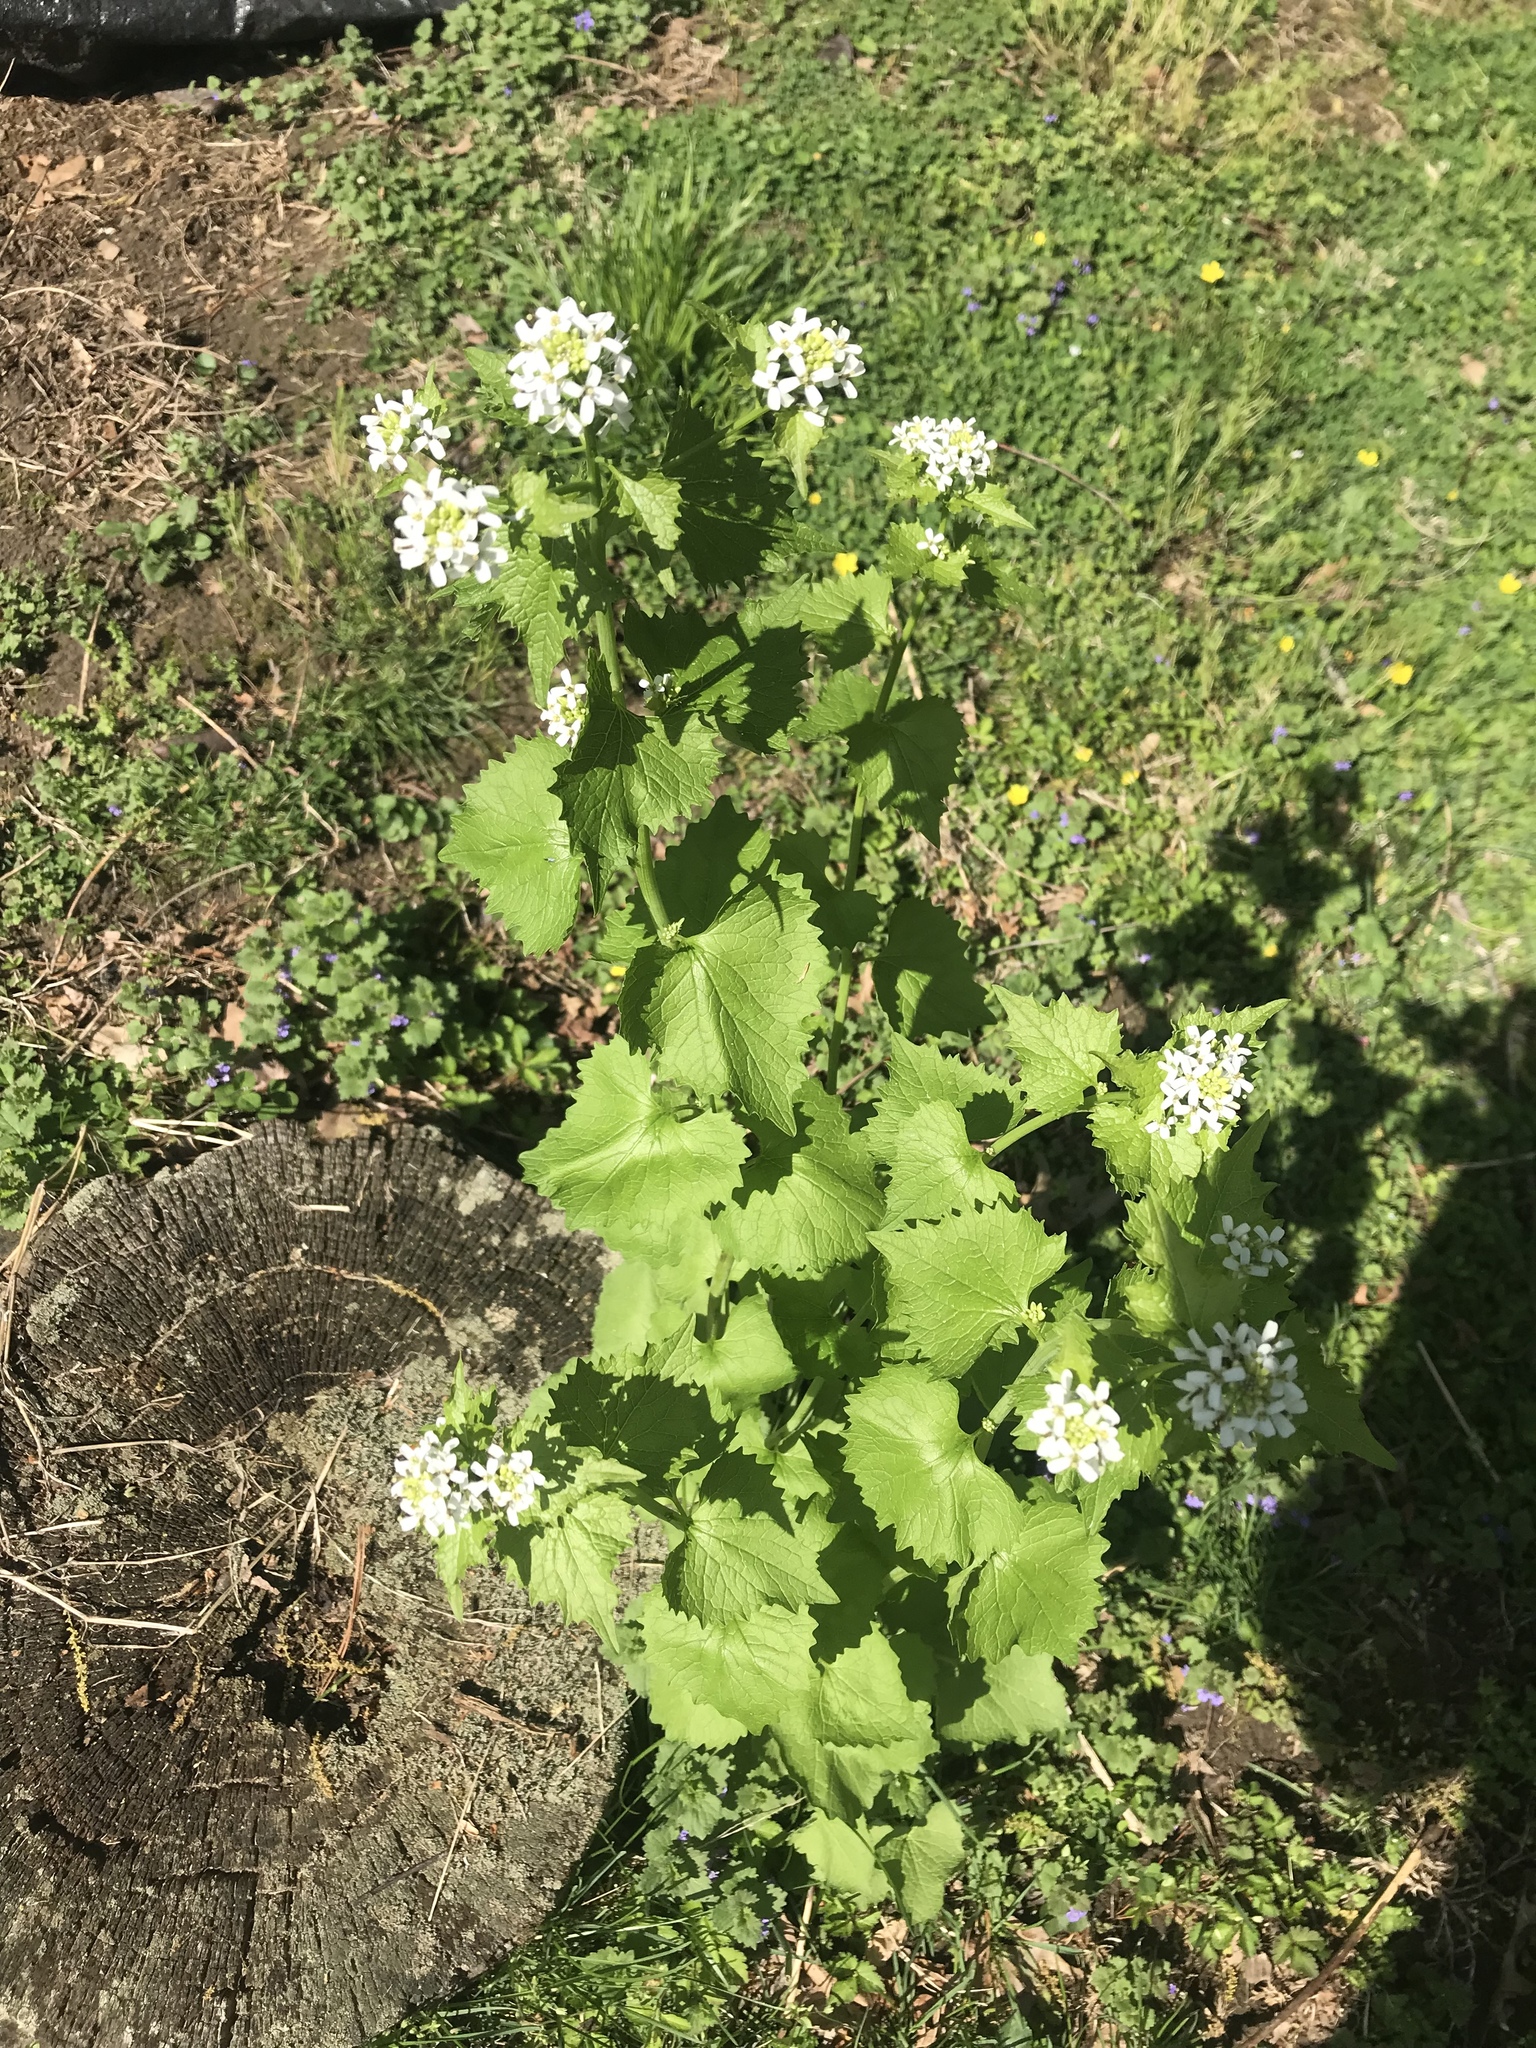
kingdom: Plantae
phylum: Tracheophyta
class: Magnoliopsida
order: Brassicales
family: Brassicaceae
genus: Alliaria
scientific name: Alliaria petiolata
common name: Garlic mustard
